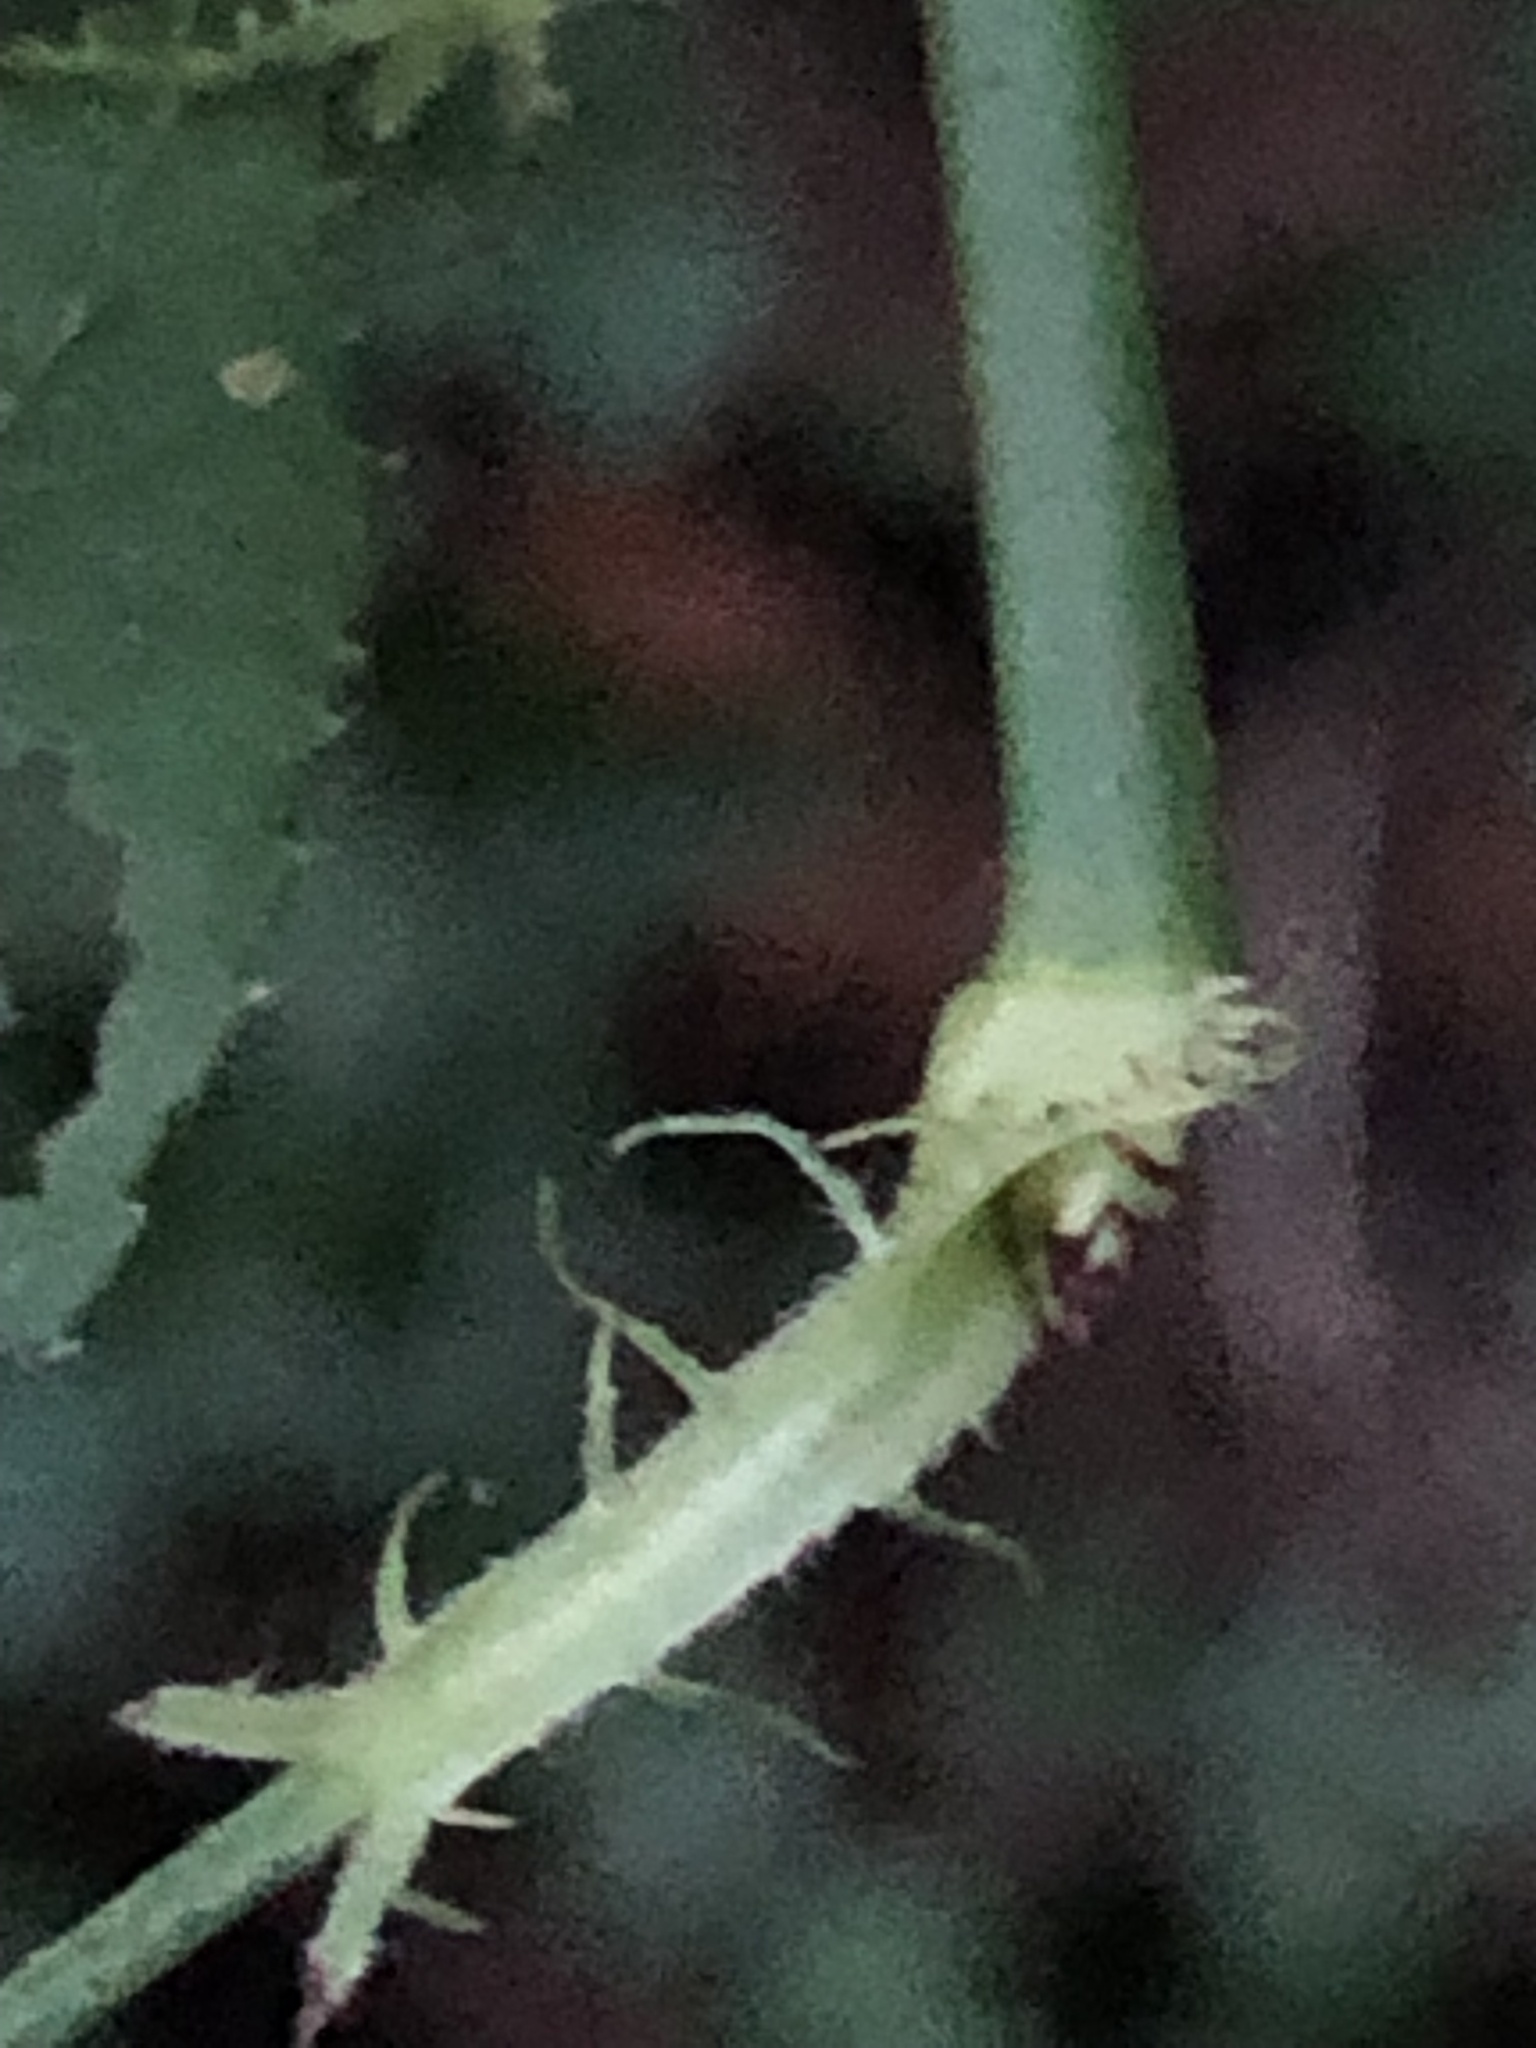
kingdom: Plantae
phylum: Tracheophyta
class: Magnoliopsida
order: Rosales
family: Rosaceae
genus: Rosa
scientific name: Rosa multiflora
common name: Multiflora rose
